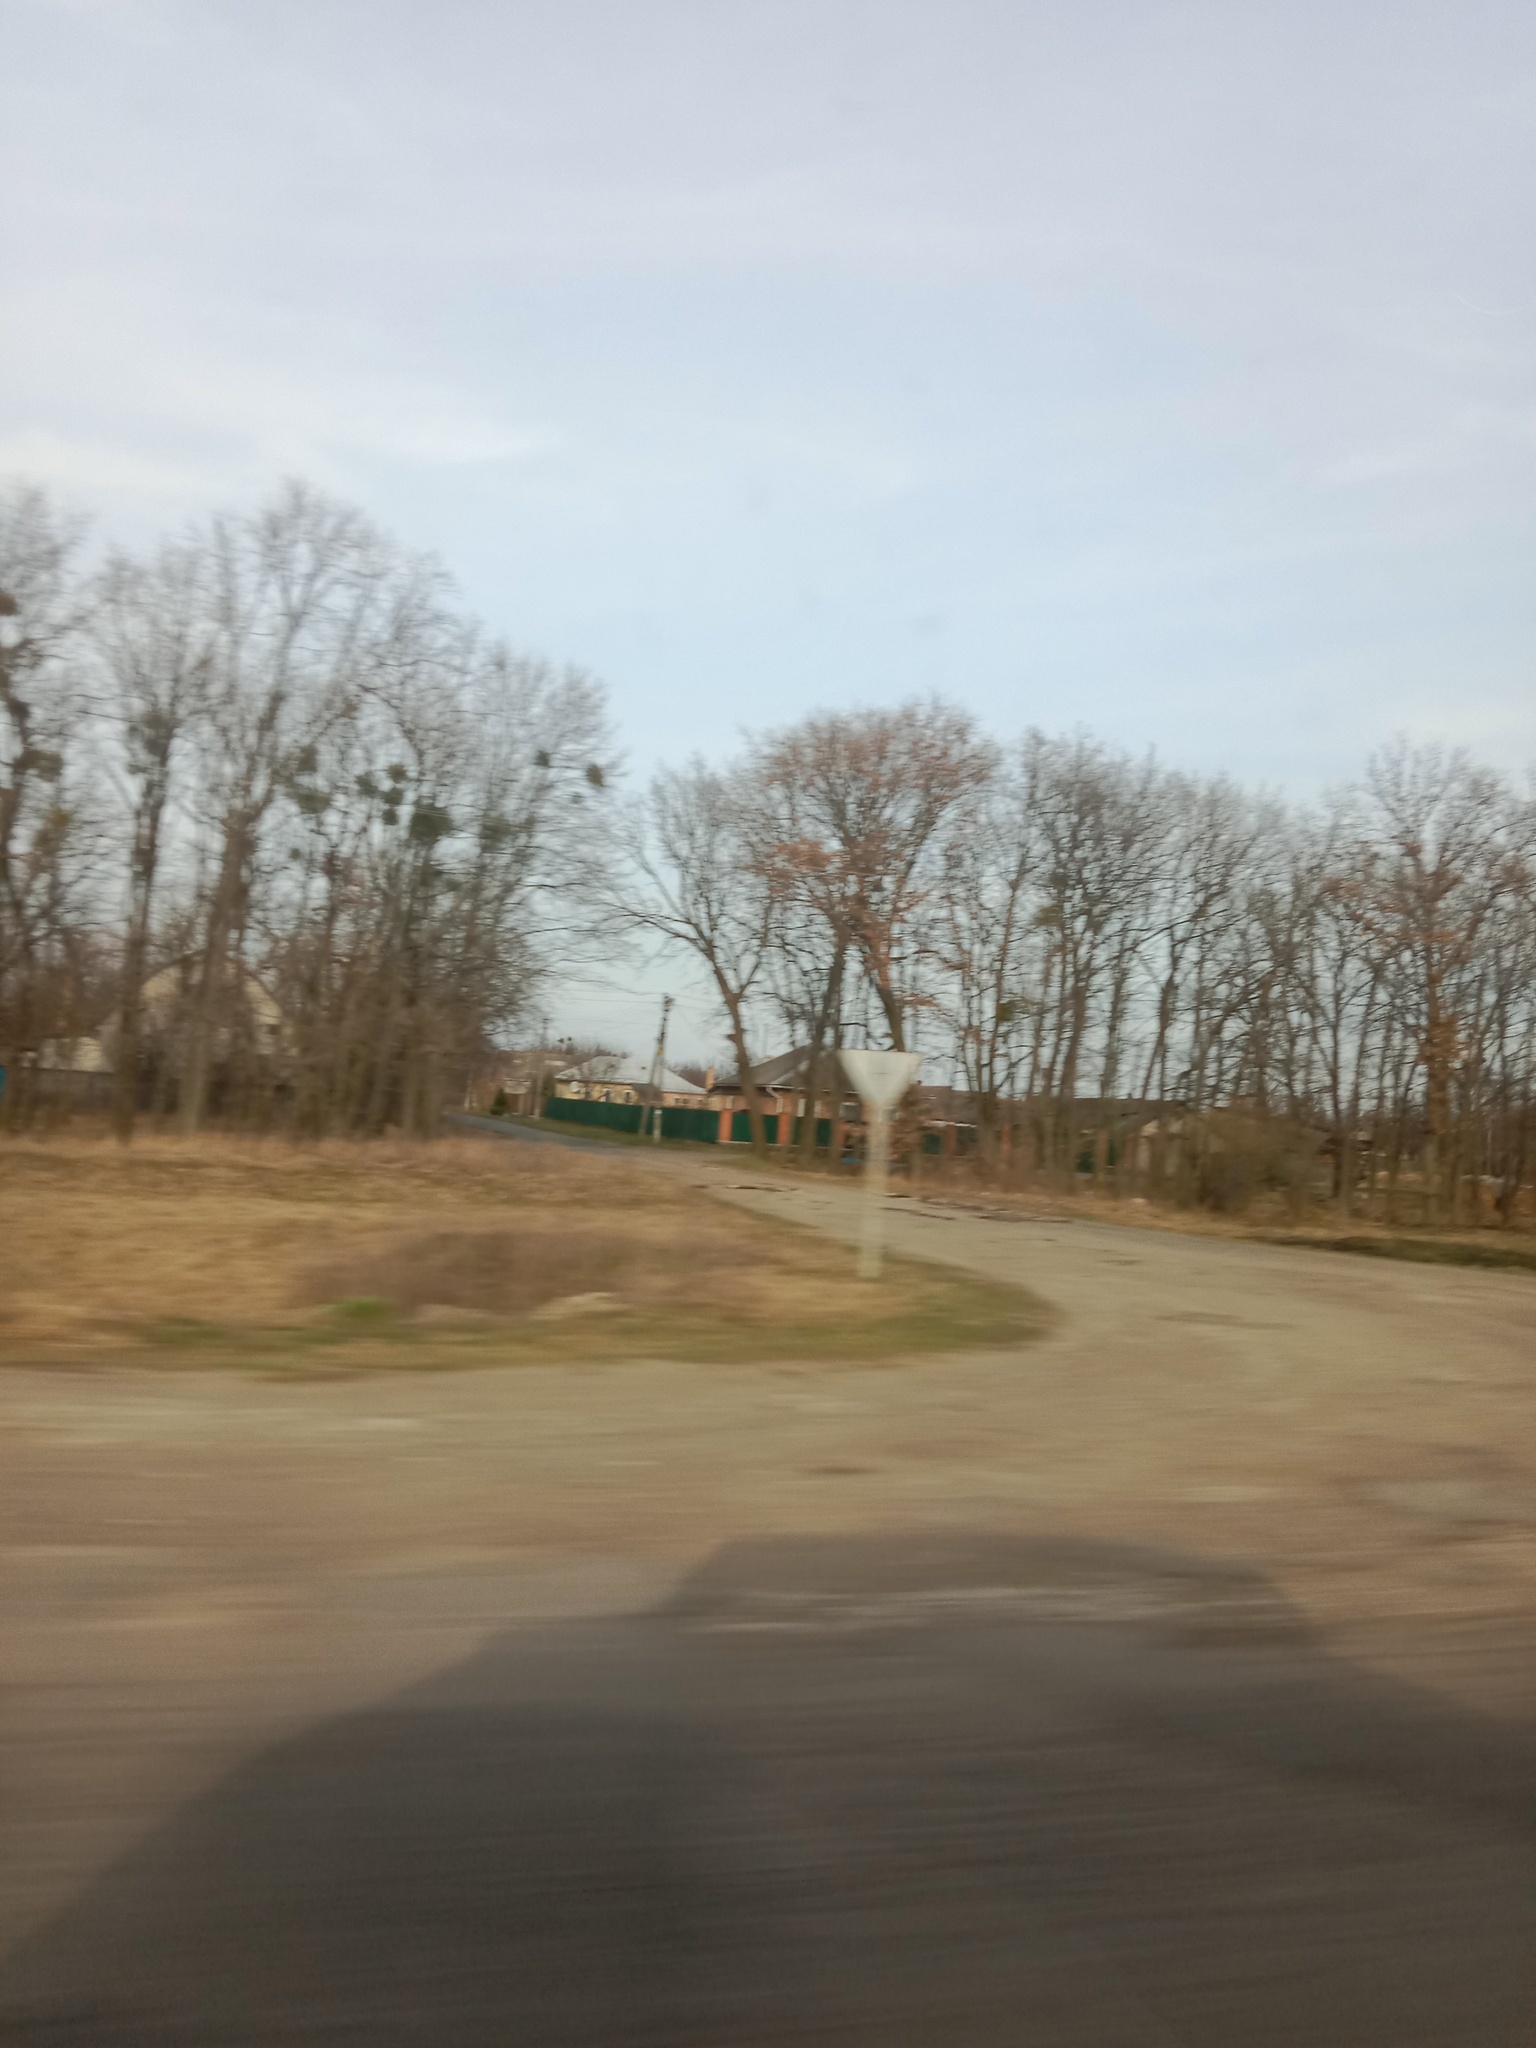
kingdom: Plantae
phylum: Tracheophyta
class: Magnoliopsida
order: Santalales
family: Viscaceae
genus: Viscum
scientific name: Viscum album
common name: Mistletoe
